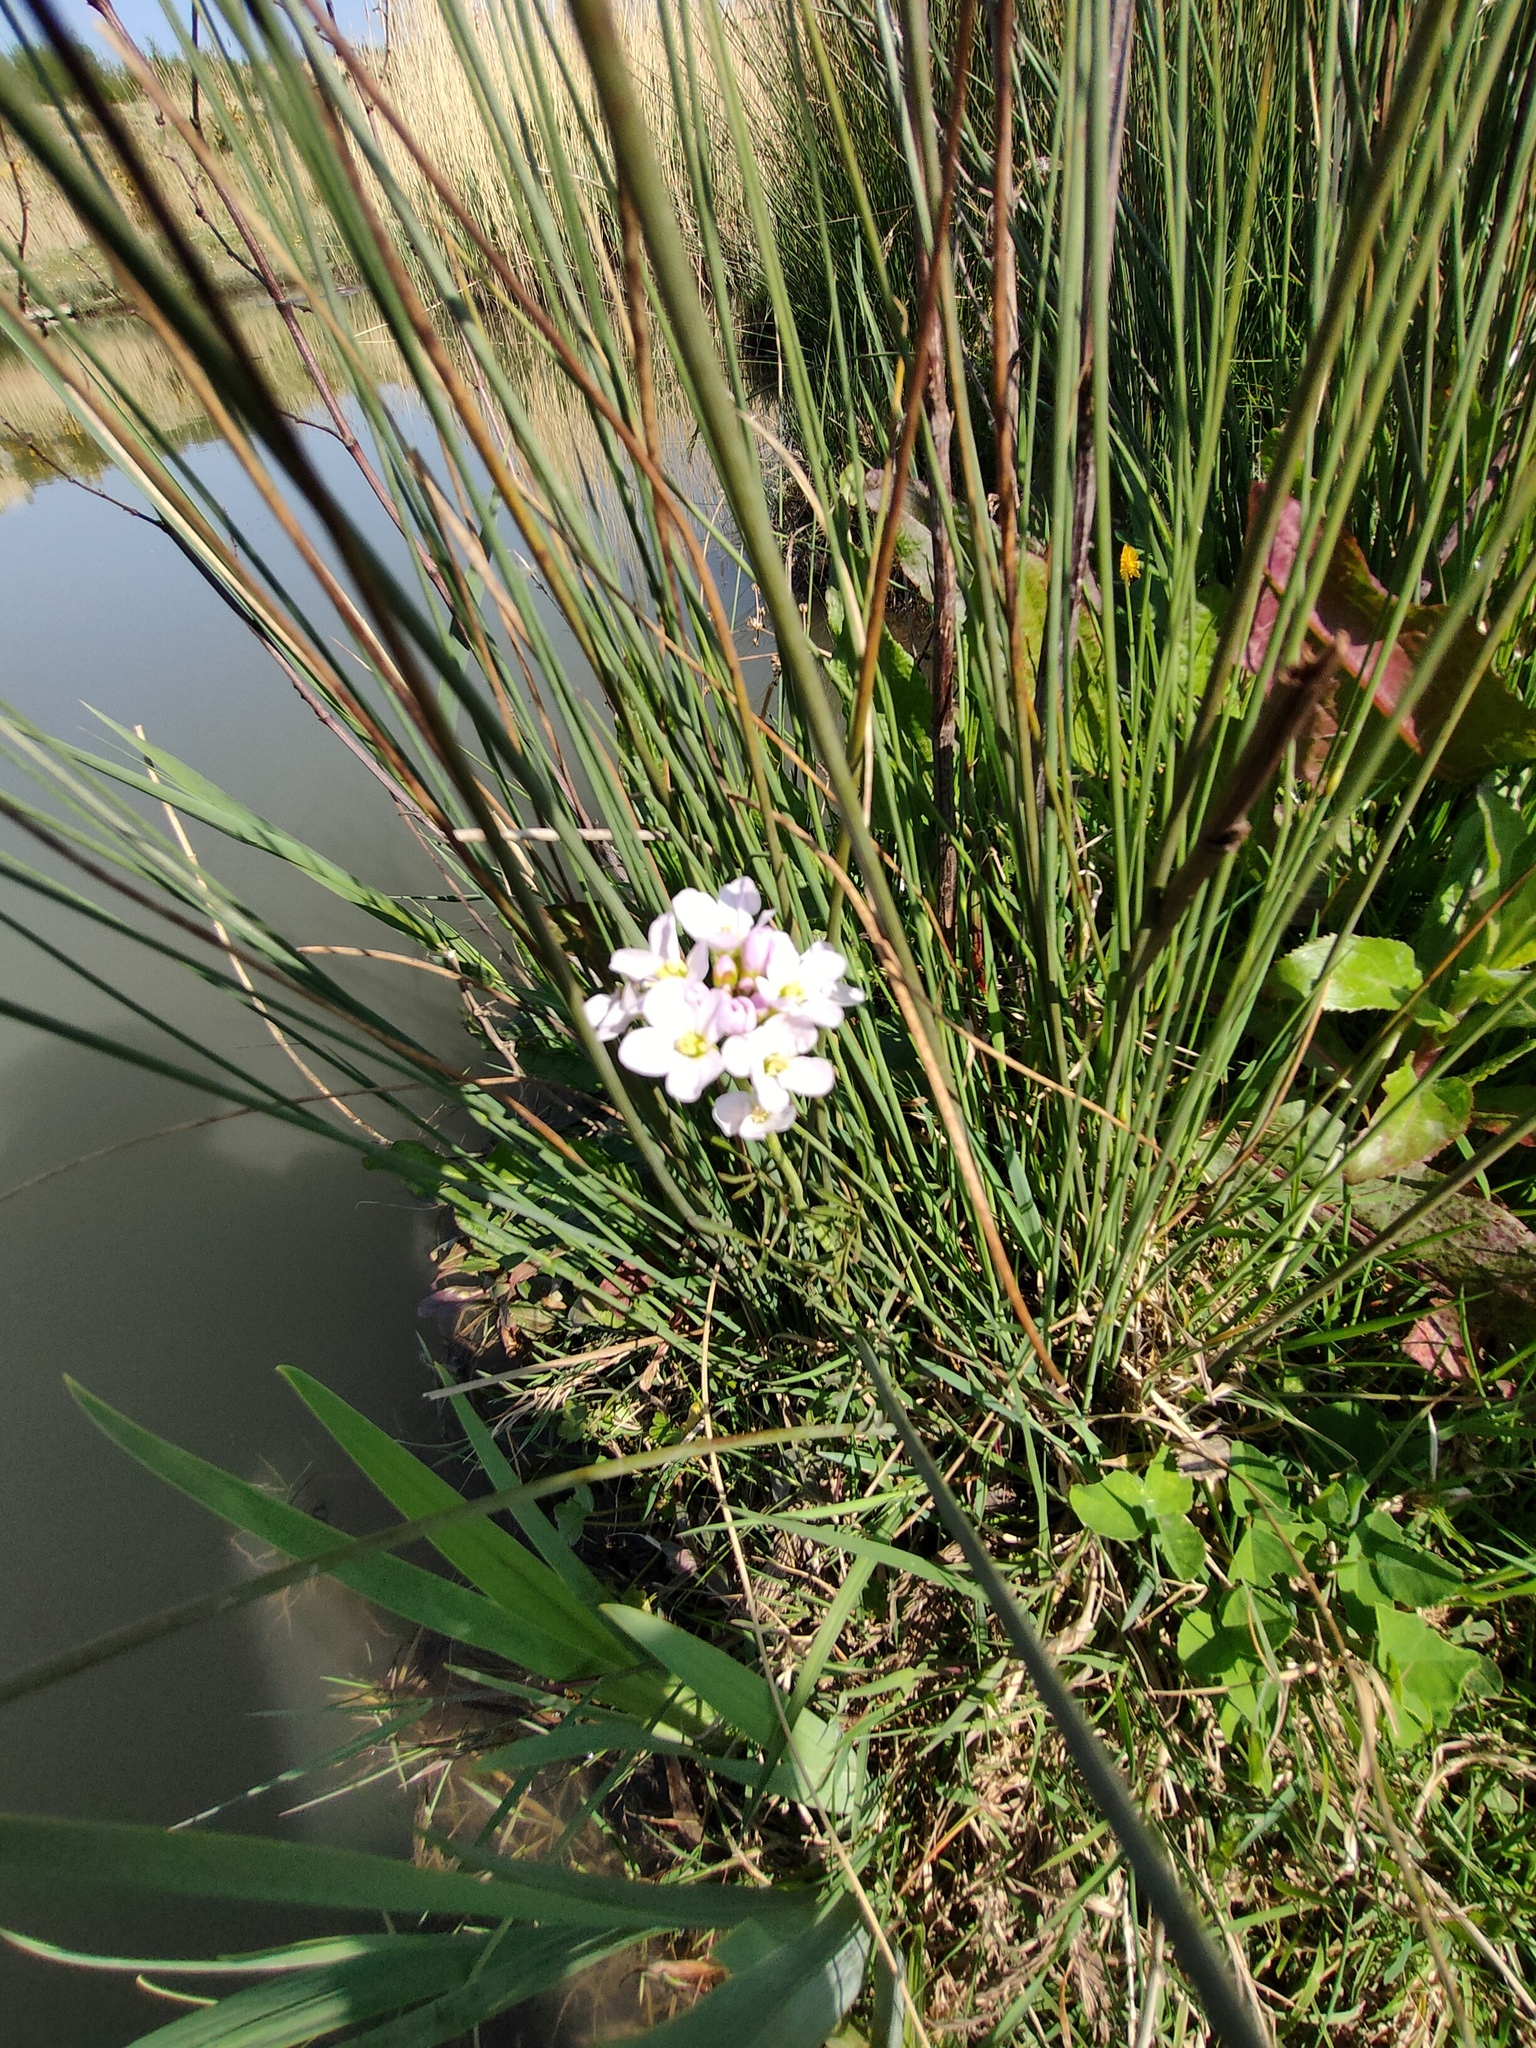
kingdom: Plantae
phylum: Tracheophyta
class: Magnoliopsida
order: Brassicales
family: Brassicaceae
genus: Cardamine
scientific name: Cardamine pratensis
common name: Cuckoo flower
